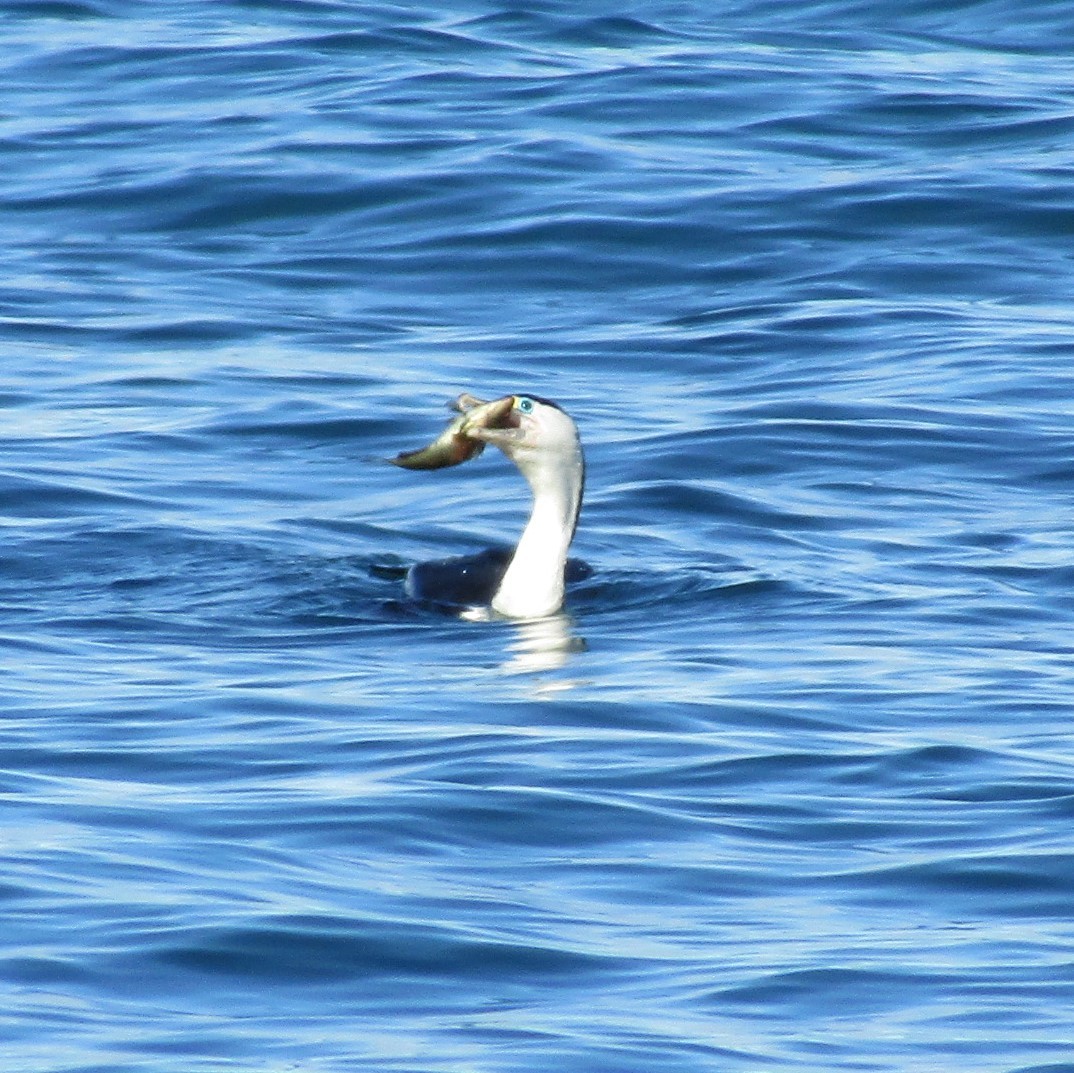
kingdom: Animalia
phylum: Chordata
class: Aves
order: Suliformes
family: Phalacrocoracidae
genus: Phalacrocorax
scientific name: Phalacrocorax varius
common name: Pied cormorant
